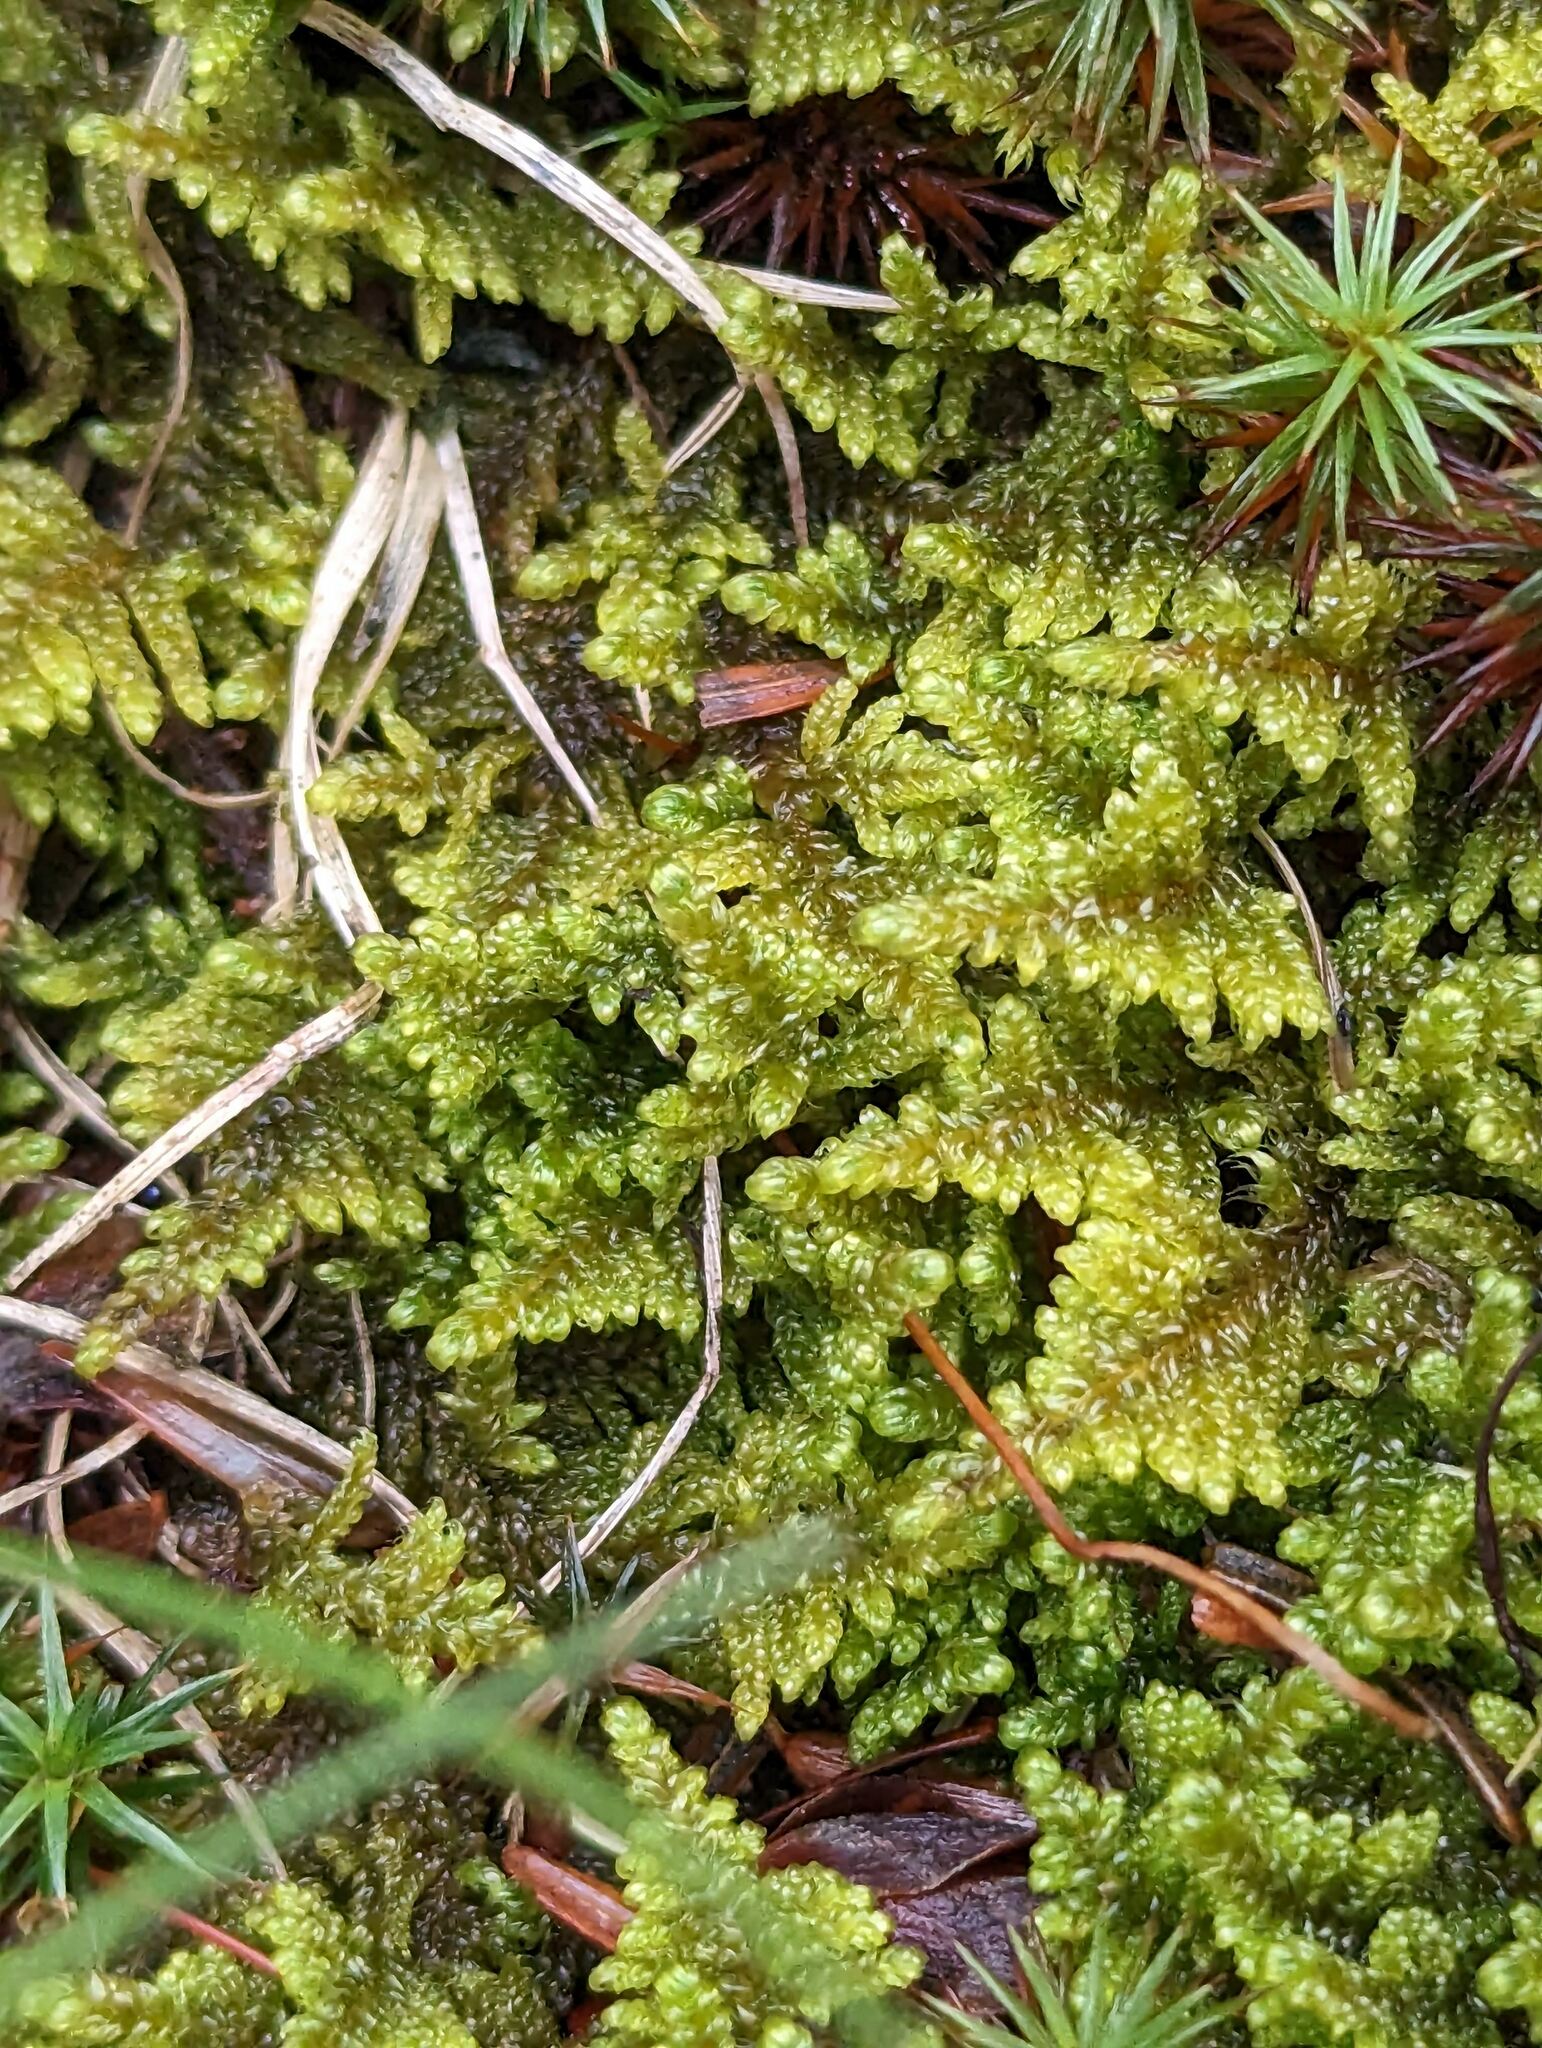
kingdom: Plantae
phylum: Bryophyta
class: Bryopsida
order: Hypnales
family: Callicladiaceae
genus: Callicladium
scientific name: Callicladium imponens
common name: Brocade moss
